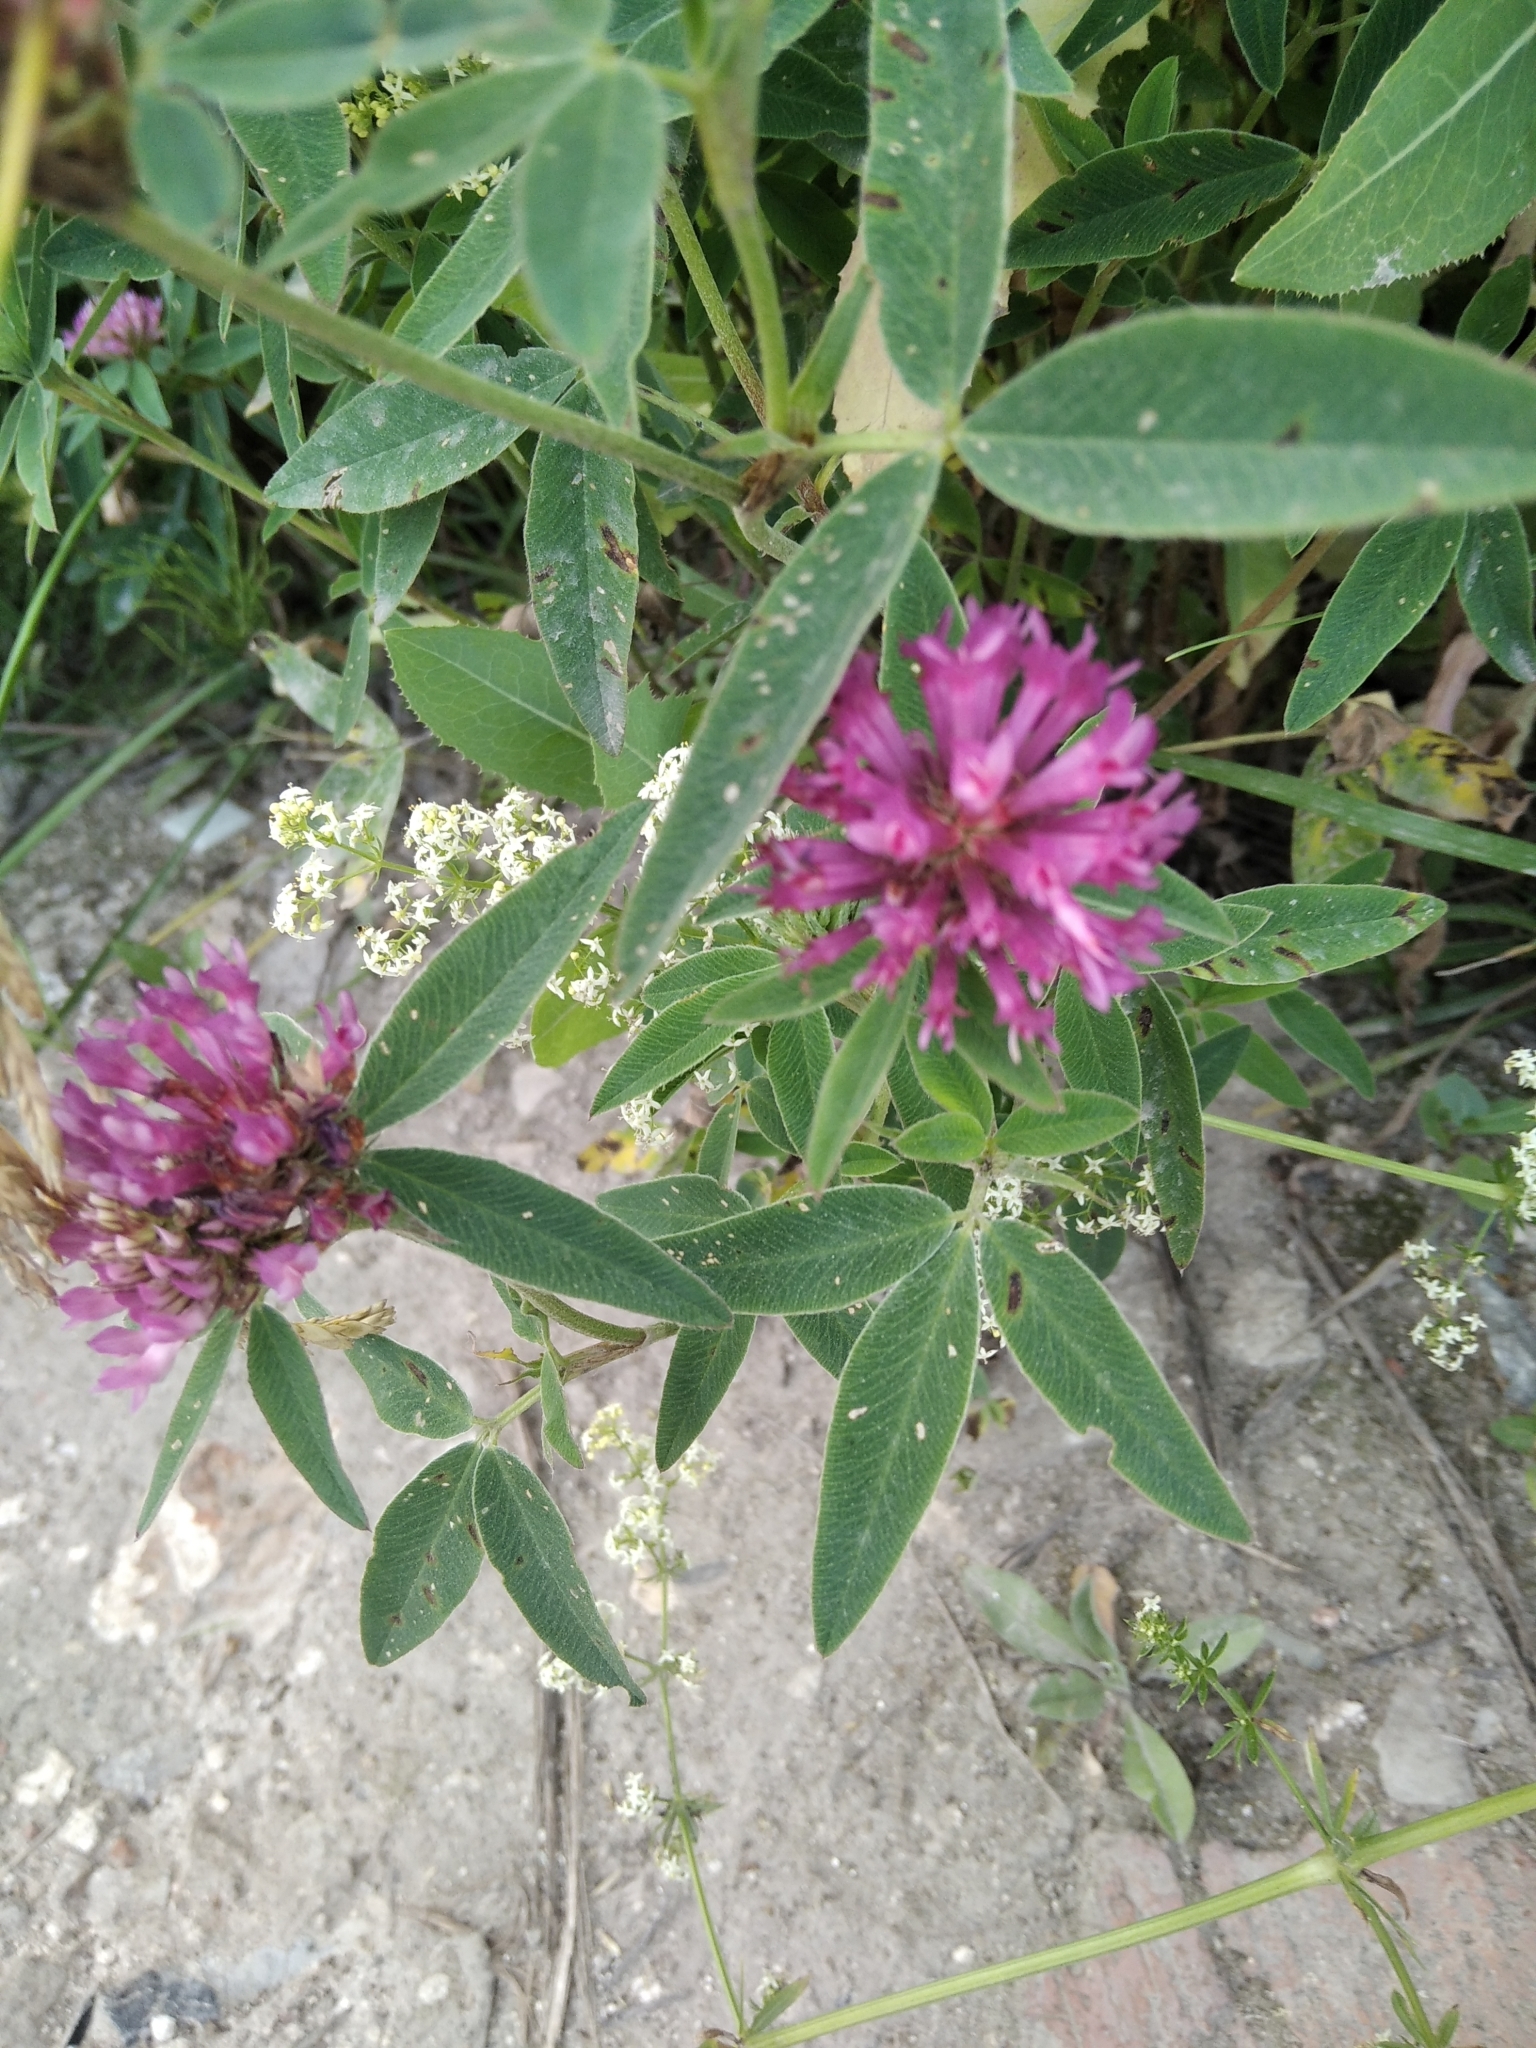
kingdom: Plantae
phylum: Tracheophyta
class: Magnoliopsida
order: Fabales
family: Fabaceae
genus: Trifolium
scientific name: Trifolium medium
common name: Zigzag clover
